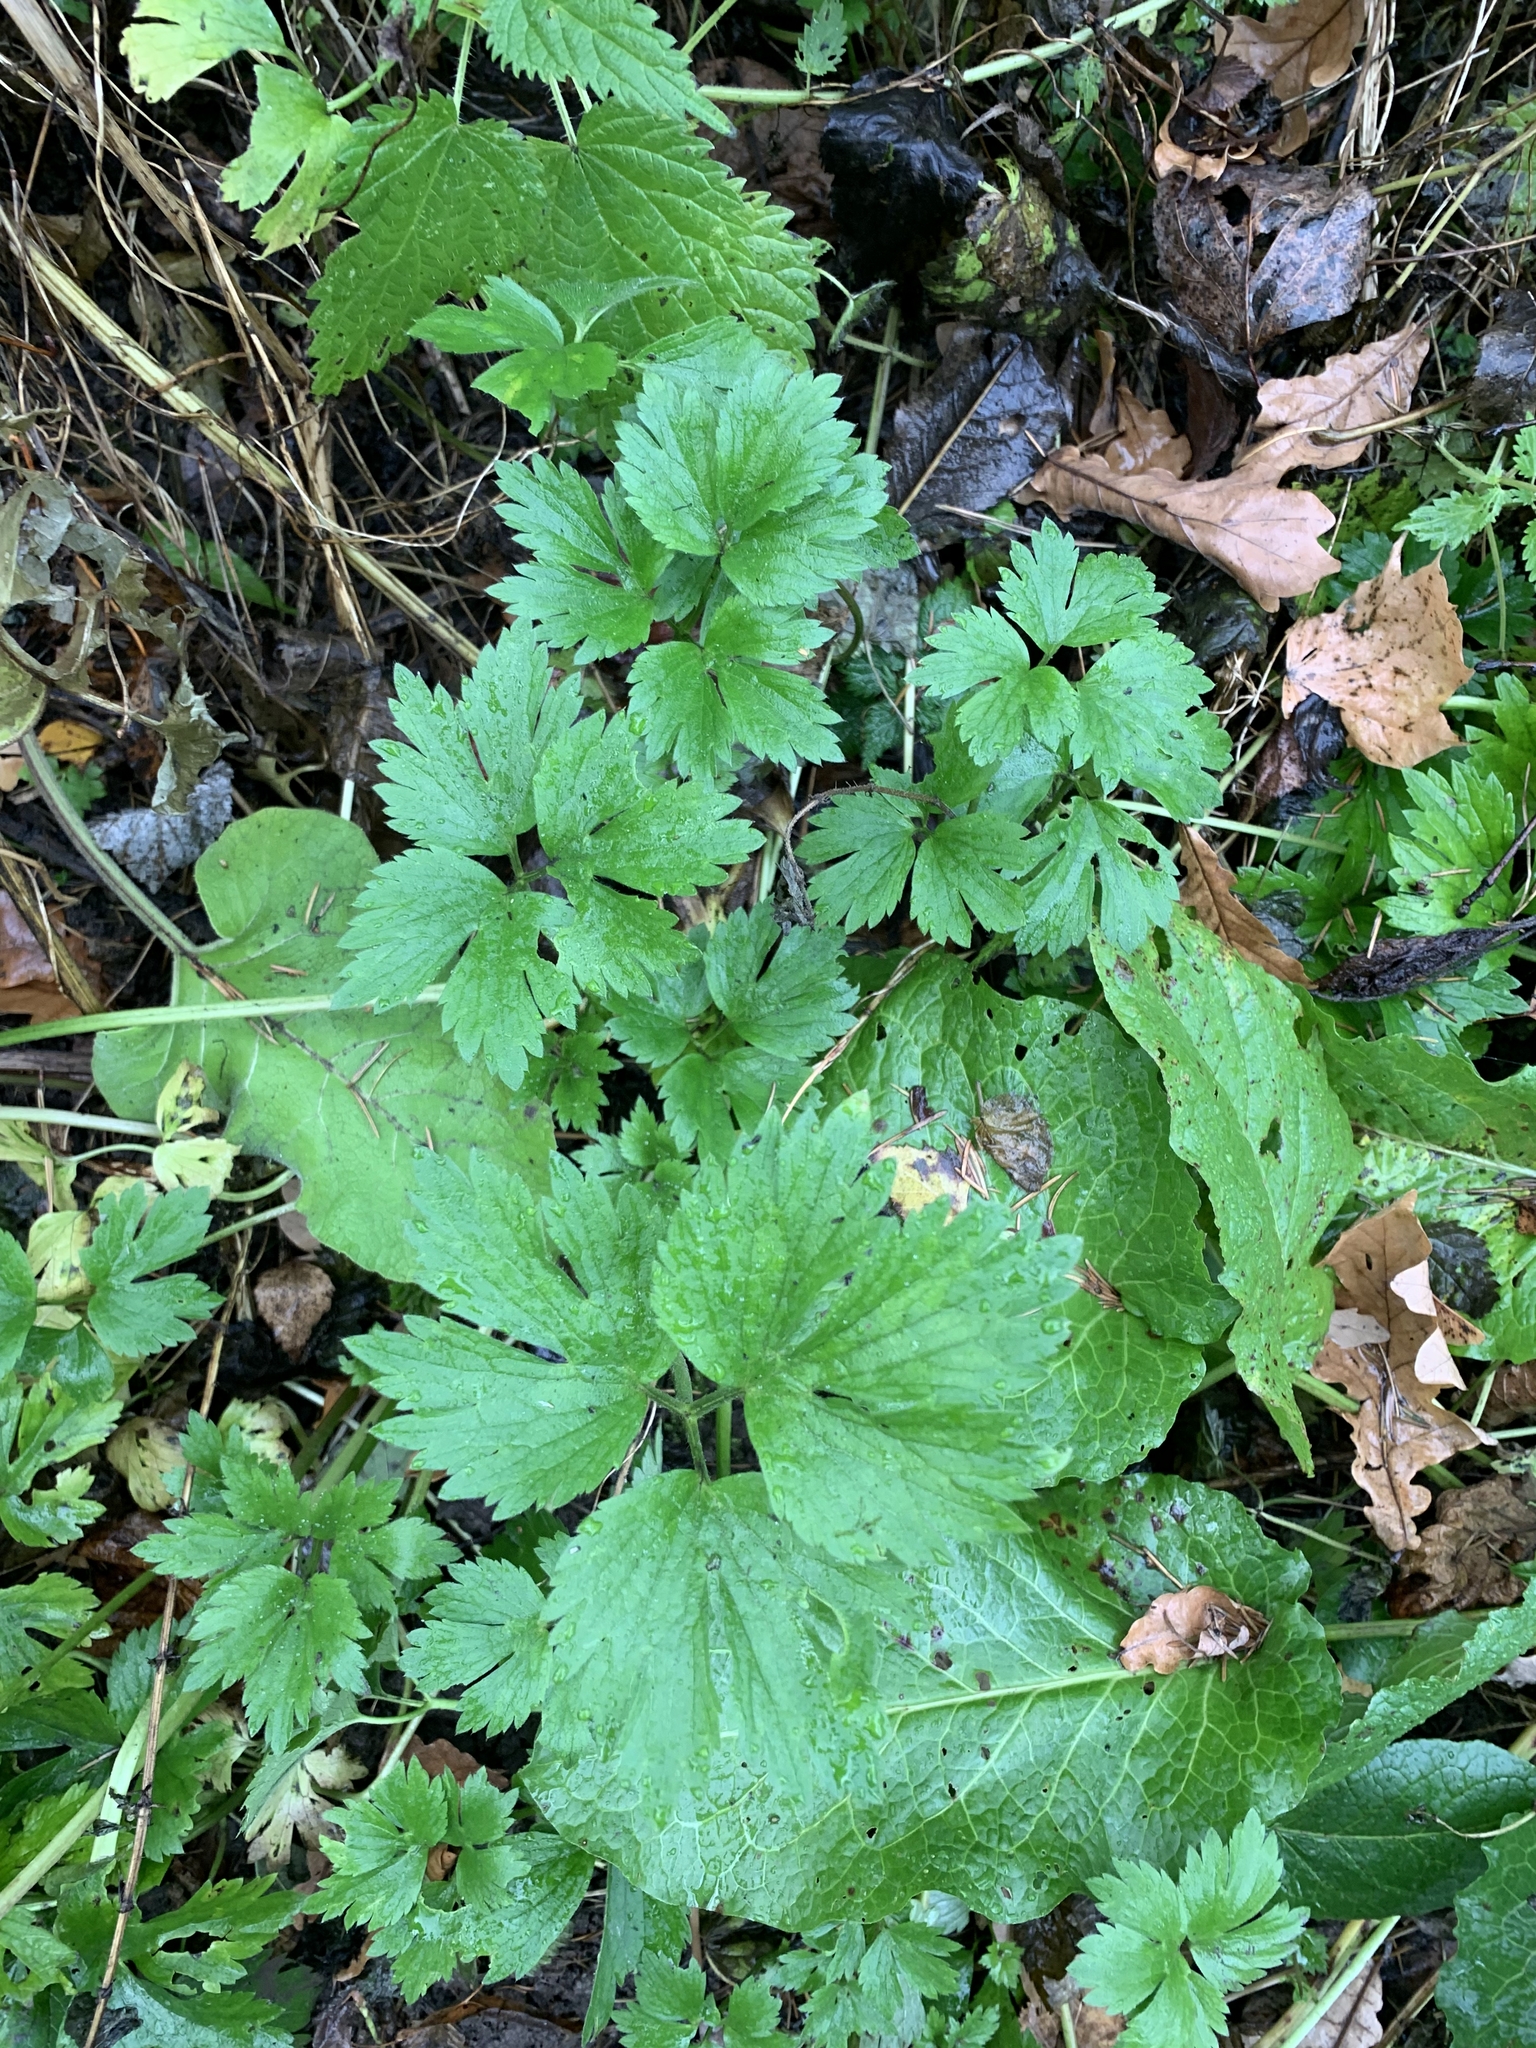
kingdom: Plantae
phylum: Tracheophyta
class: Magnoliopsida
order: Ranunculales
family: Ranunculaceae
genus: Ranunculus
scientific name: Ranunculus repens
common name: Creeping buttercup
